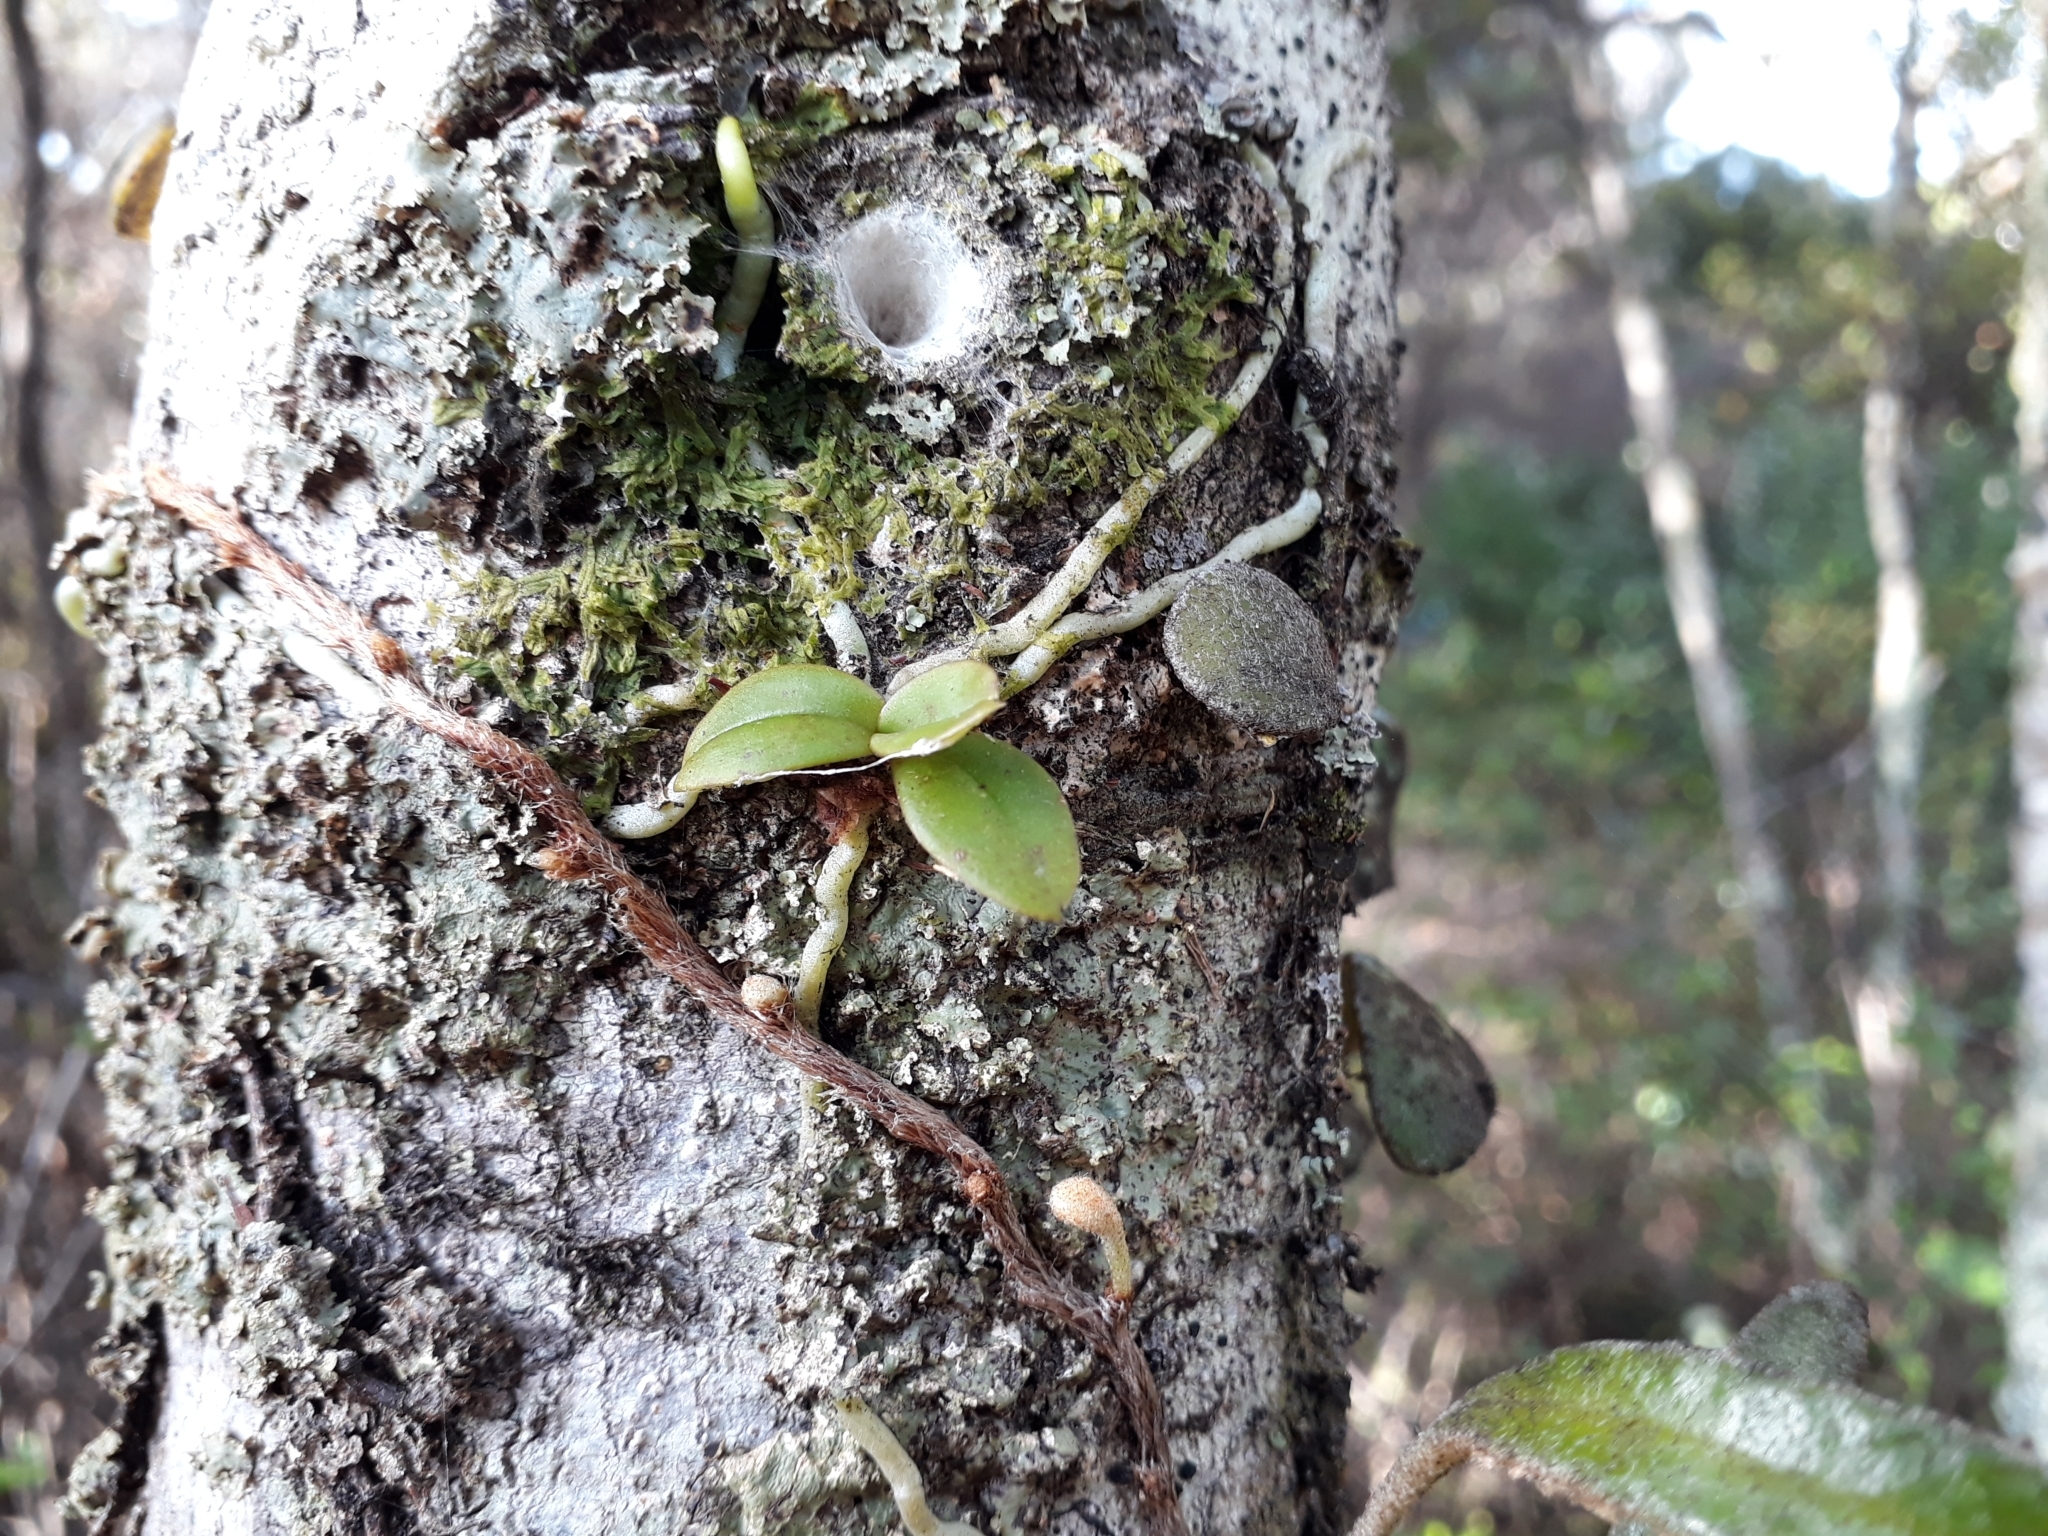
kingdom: Plantae
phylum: Tracheophyta
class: Liliopsida
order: Asparagales
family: Orchidaceae
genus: Drymoanthus
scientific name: Drymoanthus adversus
